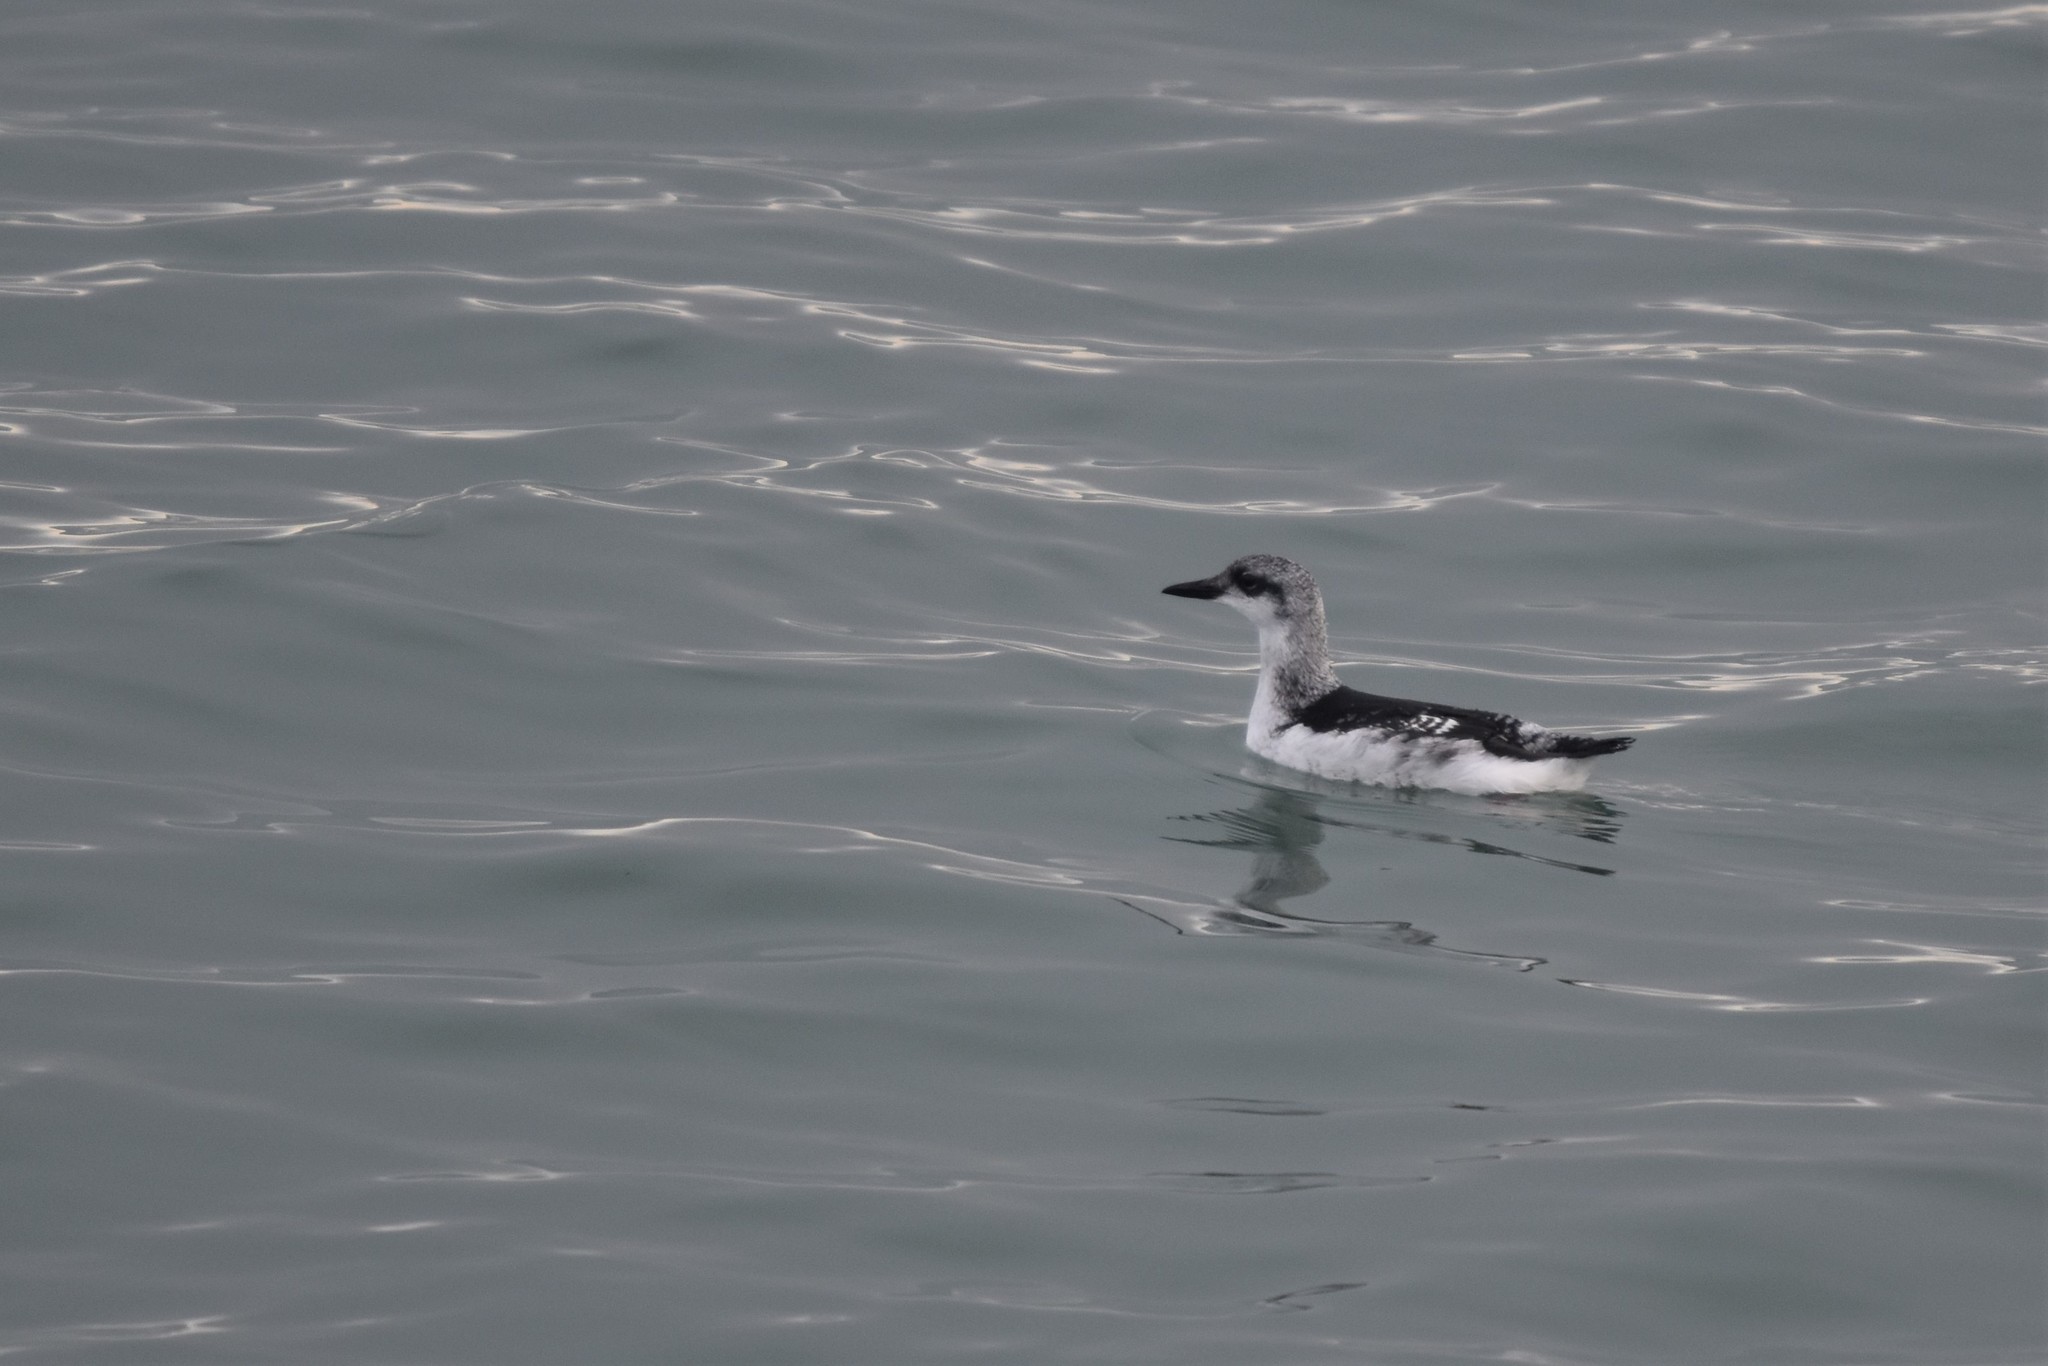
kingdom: Animalia
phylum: Chordata
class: Aves
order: Charadriiformes
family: Alcidae
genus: Cepphus
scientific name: Cepphus grylle
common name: Black guillemot
